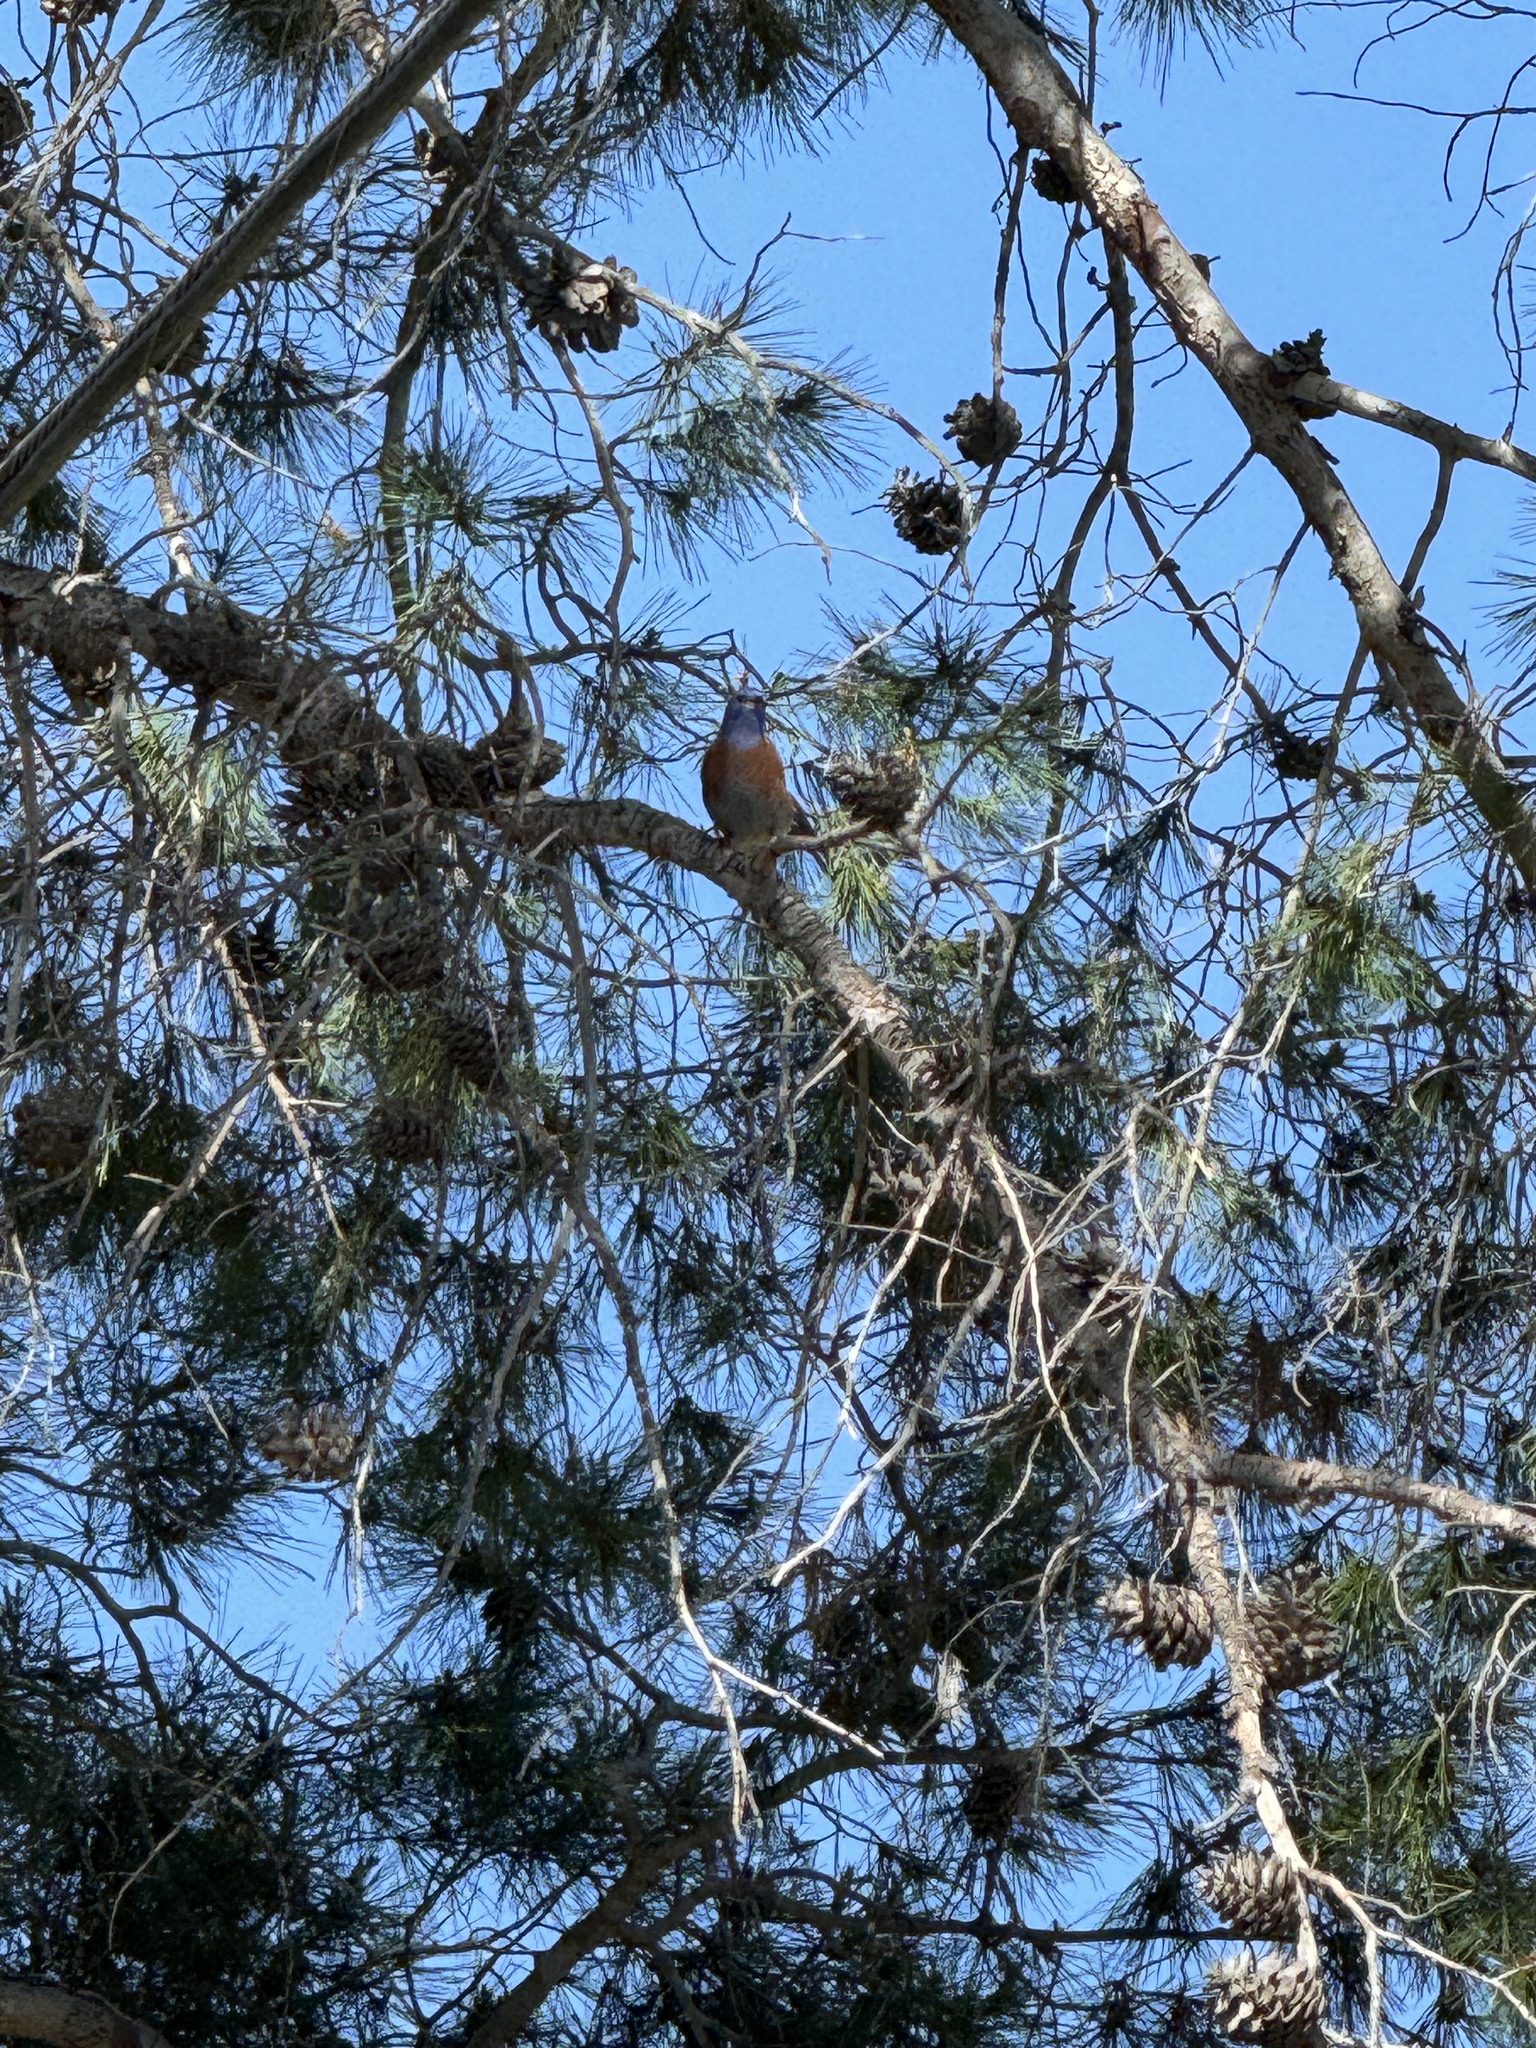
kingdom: Animalia
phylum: Chordata
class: Aves
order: Passeriformes
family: Turdidae
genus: Sialia
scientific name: Sialia mexicana
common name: Western bluebird
